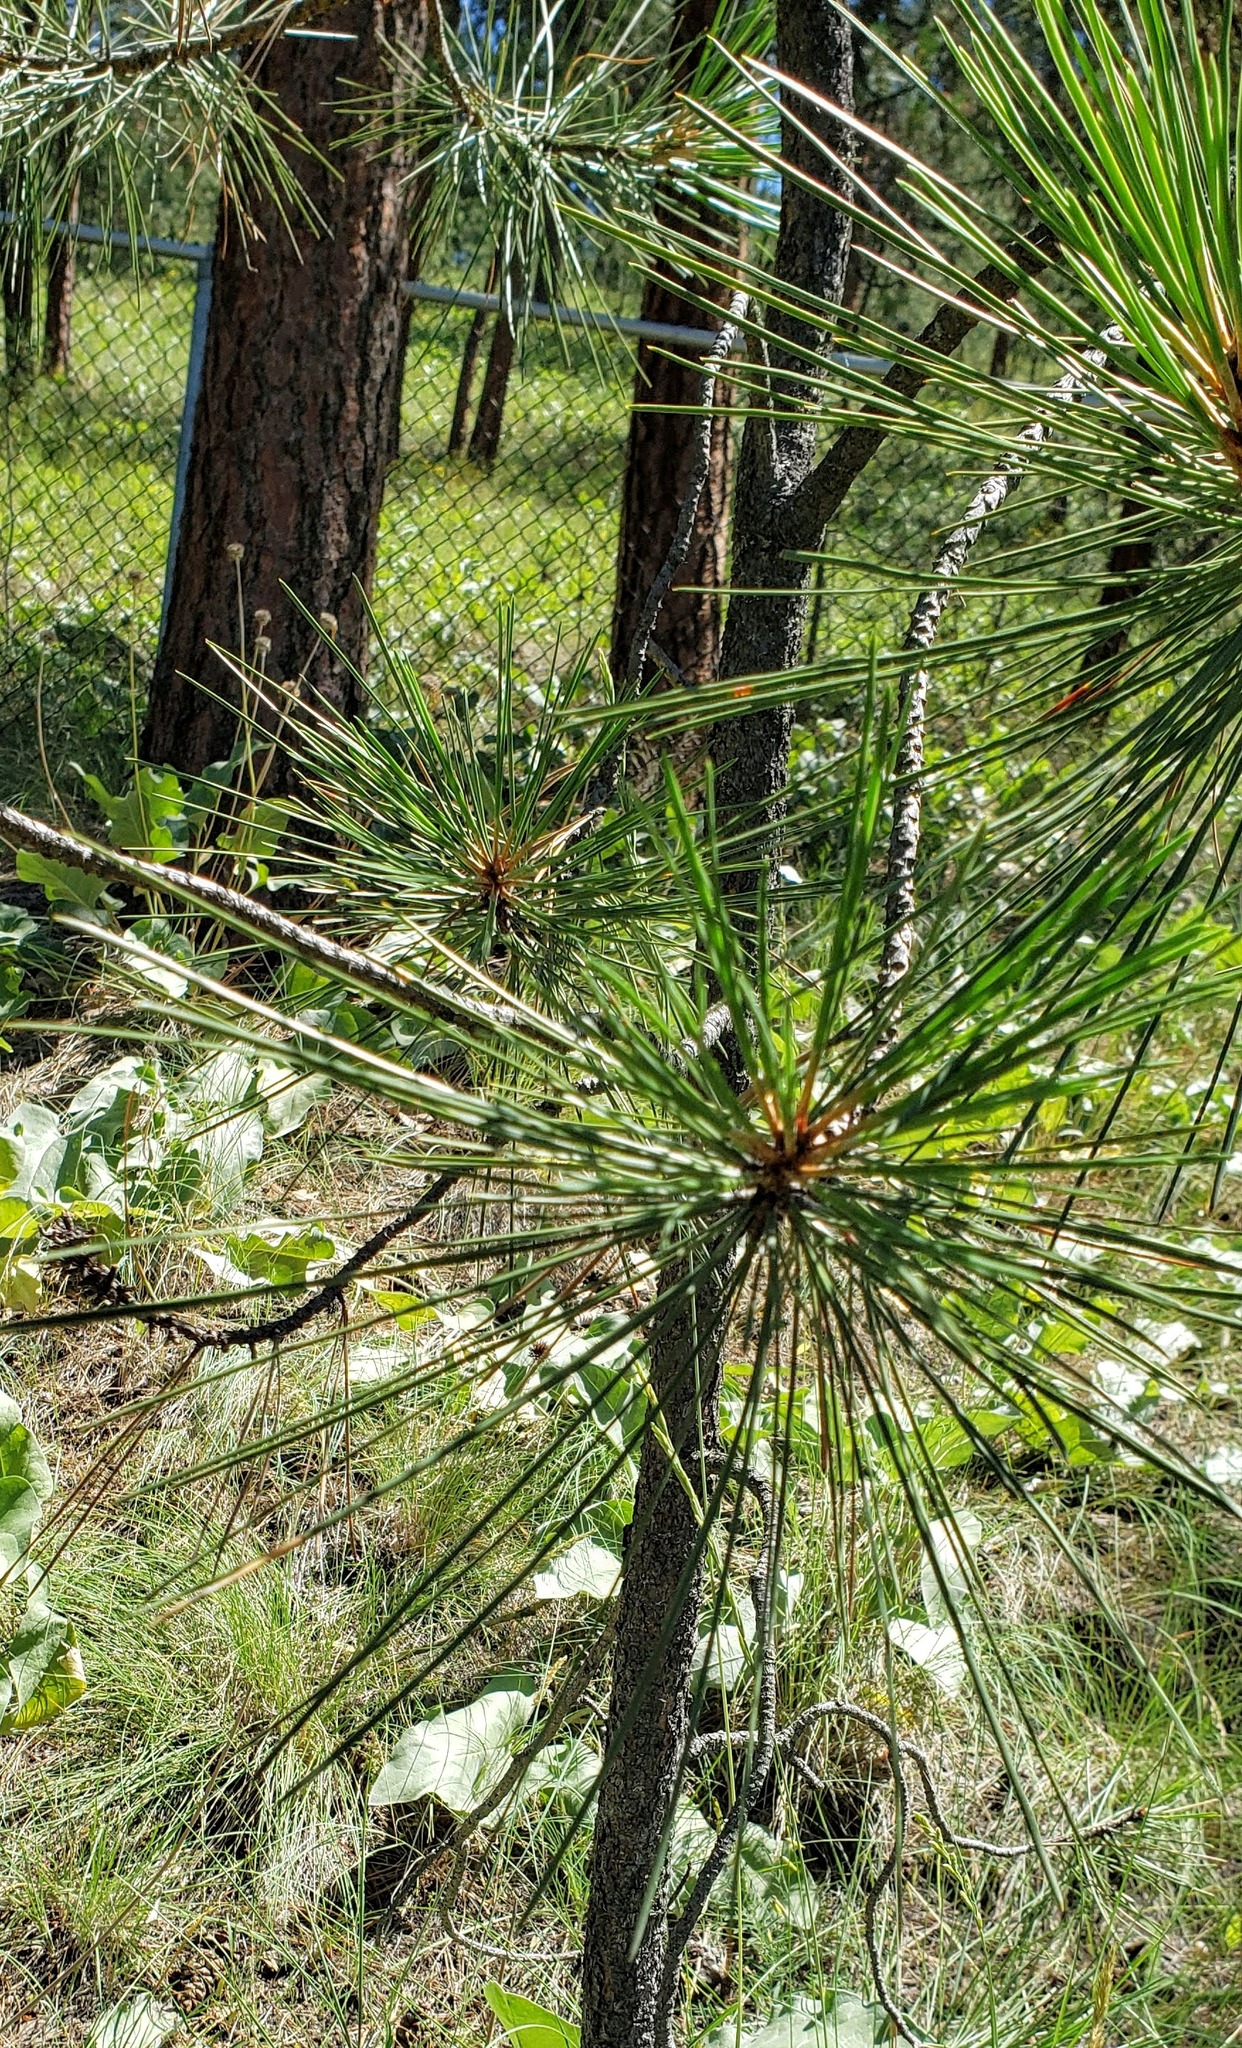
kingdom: Plantae
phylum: Tracheophyta
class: Pinopsida
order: Pinales
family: Pinaceae
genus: Pinus
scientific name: Pinus ponderosa
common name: Western yellow-pine
